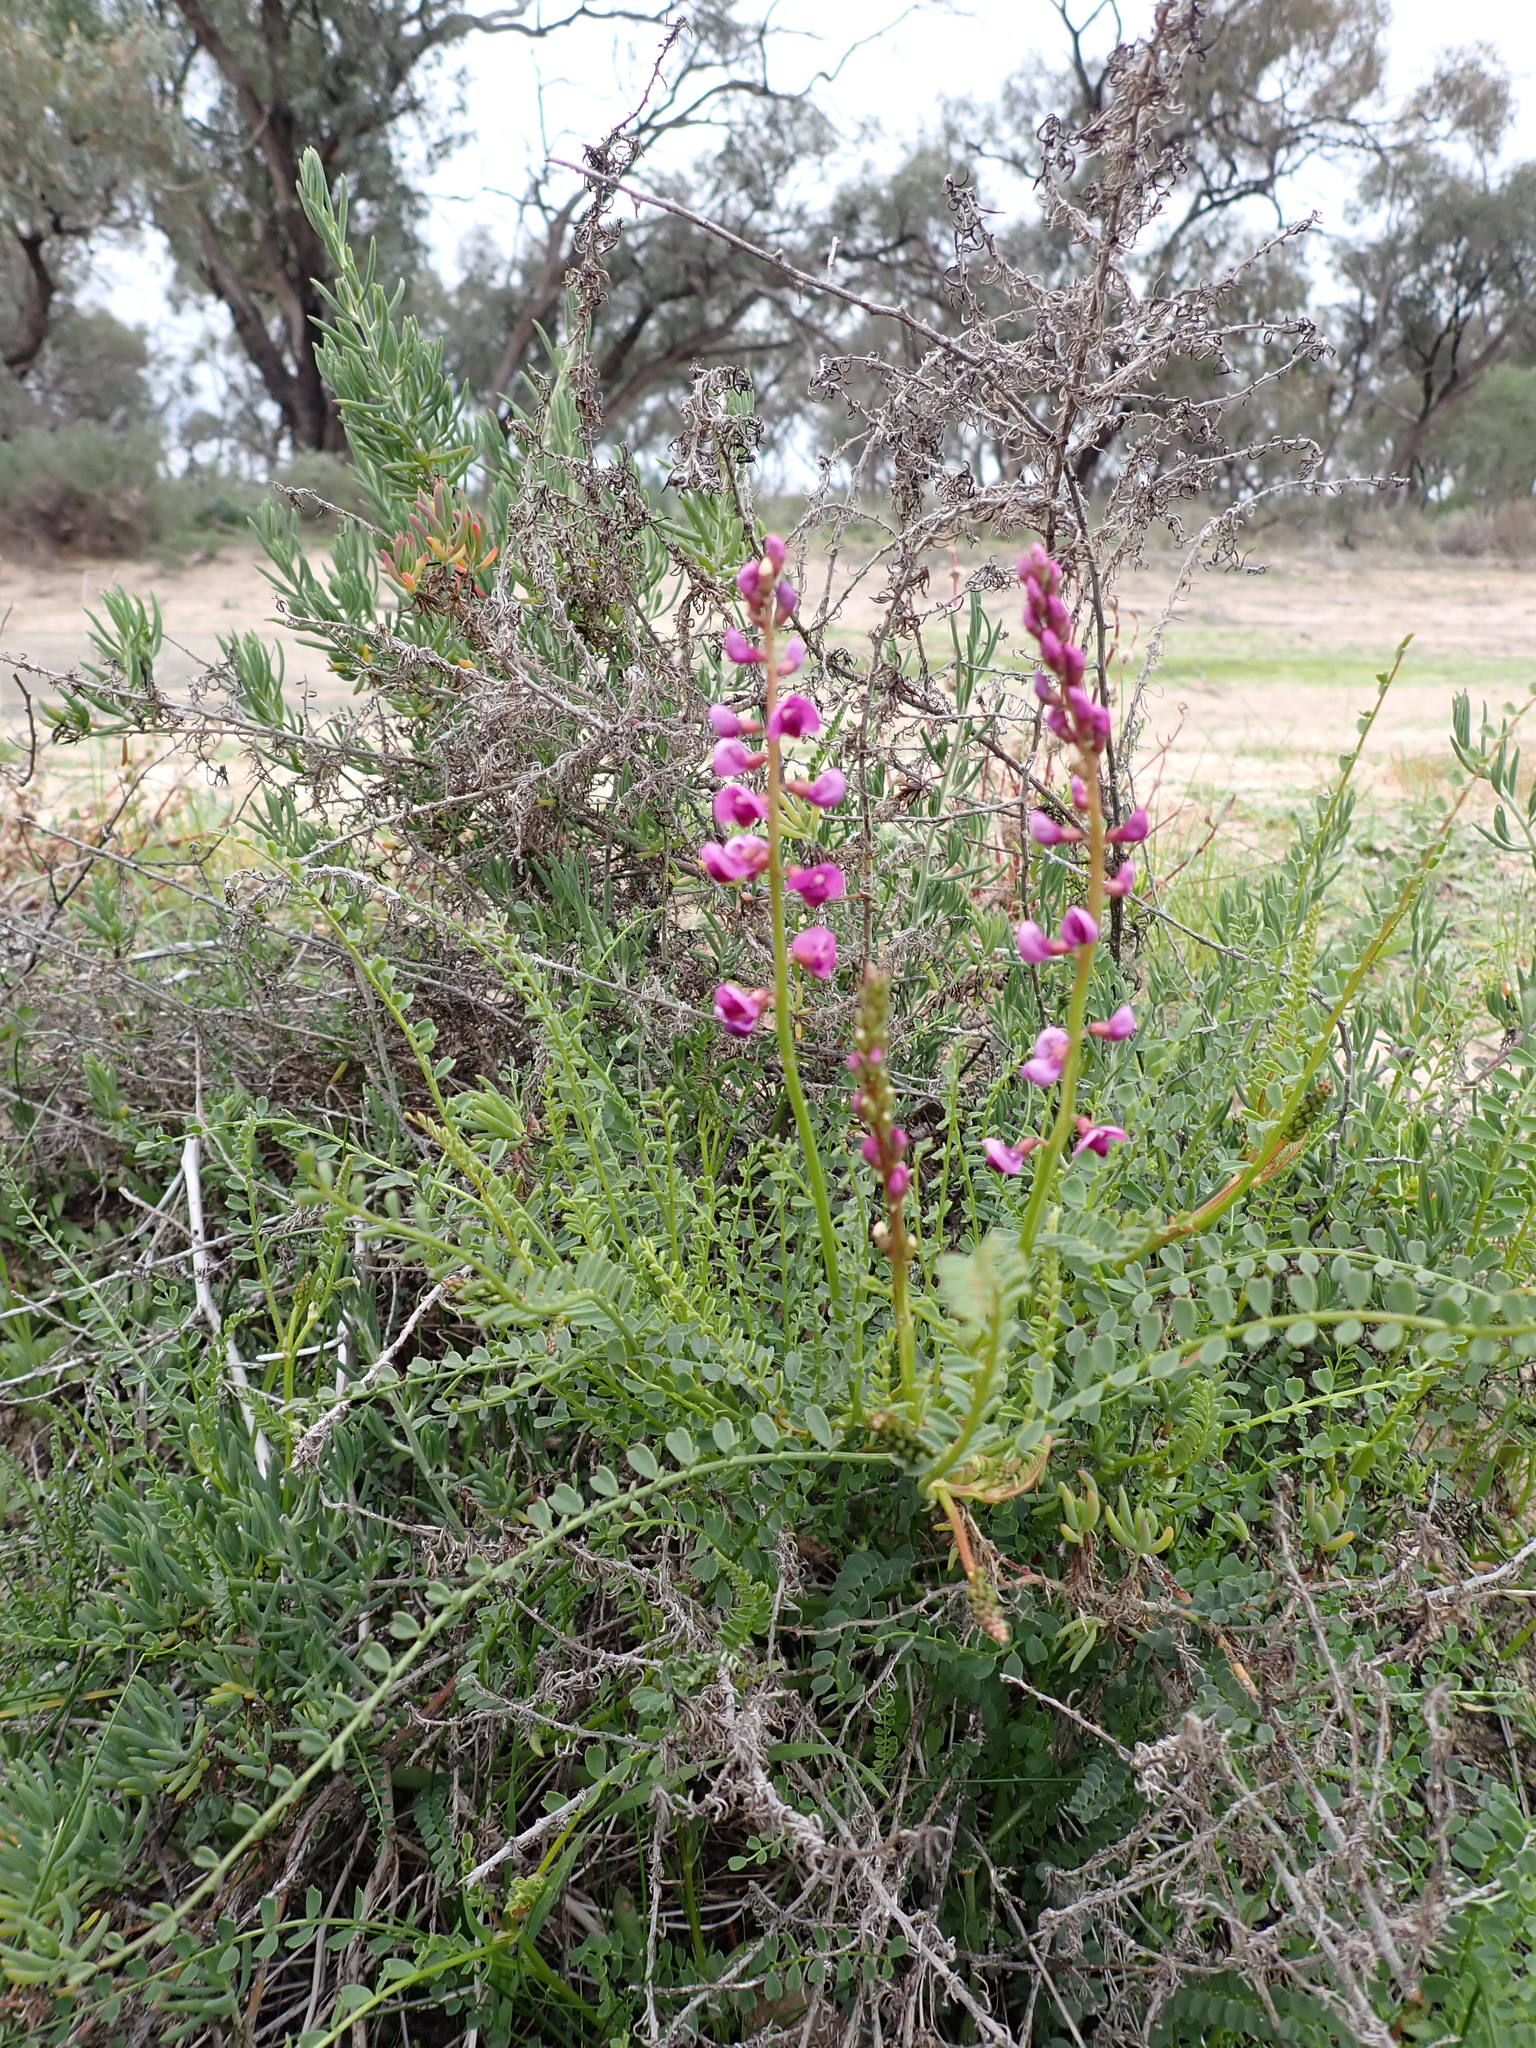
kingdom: Plantae
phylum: Tracheophyta
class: Magnoliopsida
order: Fabales
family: Fabaceae
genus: Swainsona
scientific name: Swainsona microphylla
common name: Small-leaf swainsona-pea
